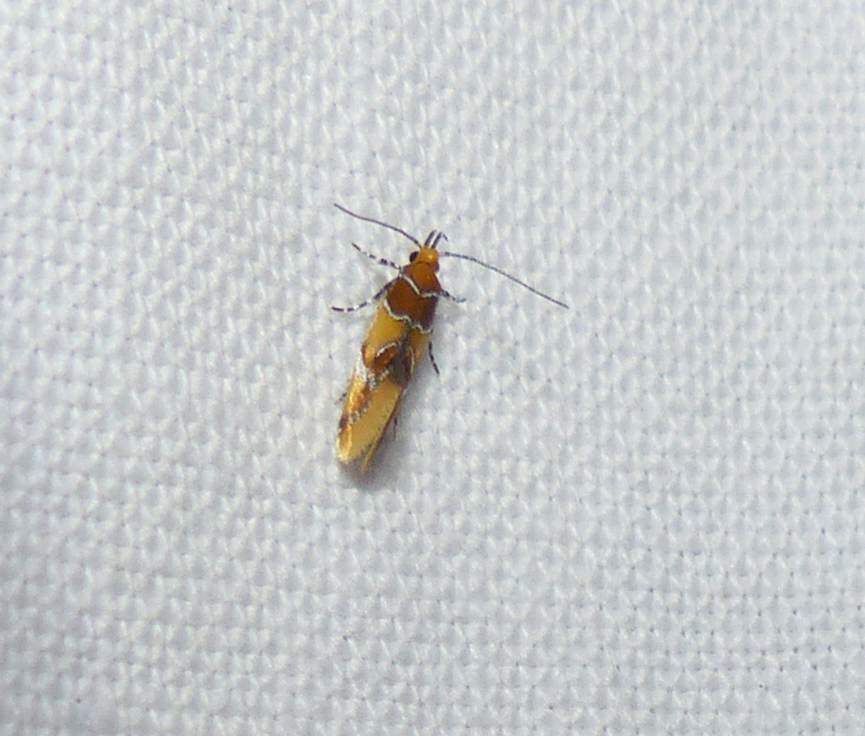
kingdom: Animalia
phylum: Arthropoda
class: Insecta
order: Lepidoptera
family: Oecophoridae
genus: Callima
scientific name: Callima argenticinctella
